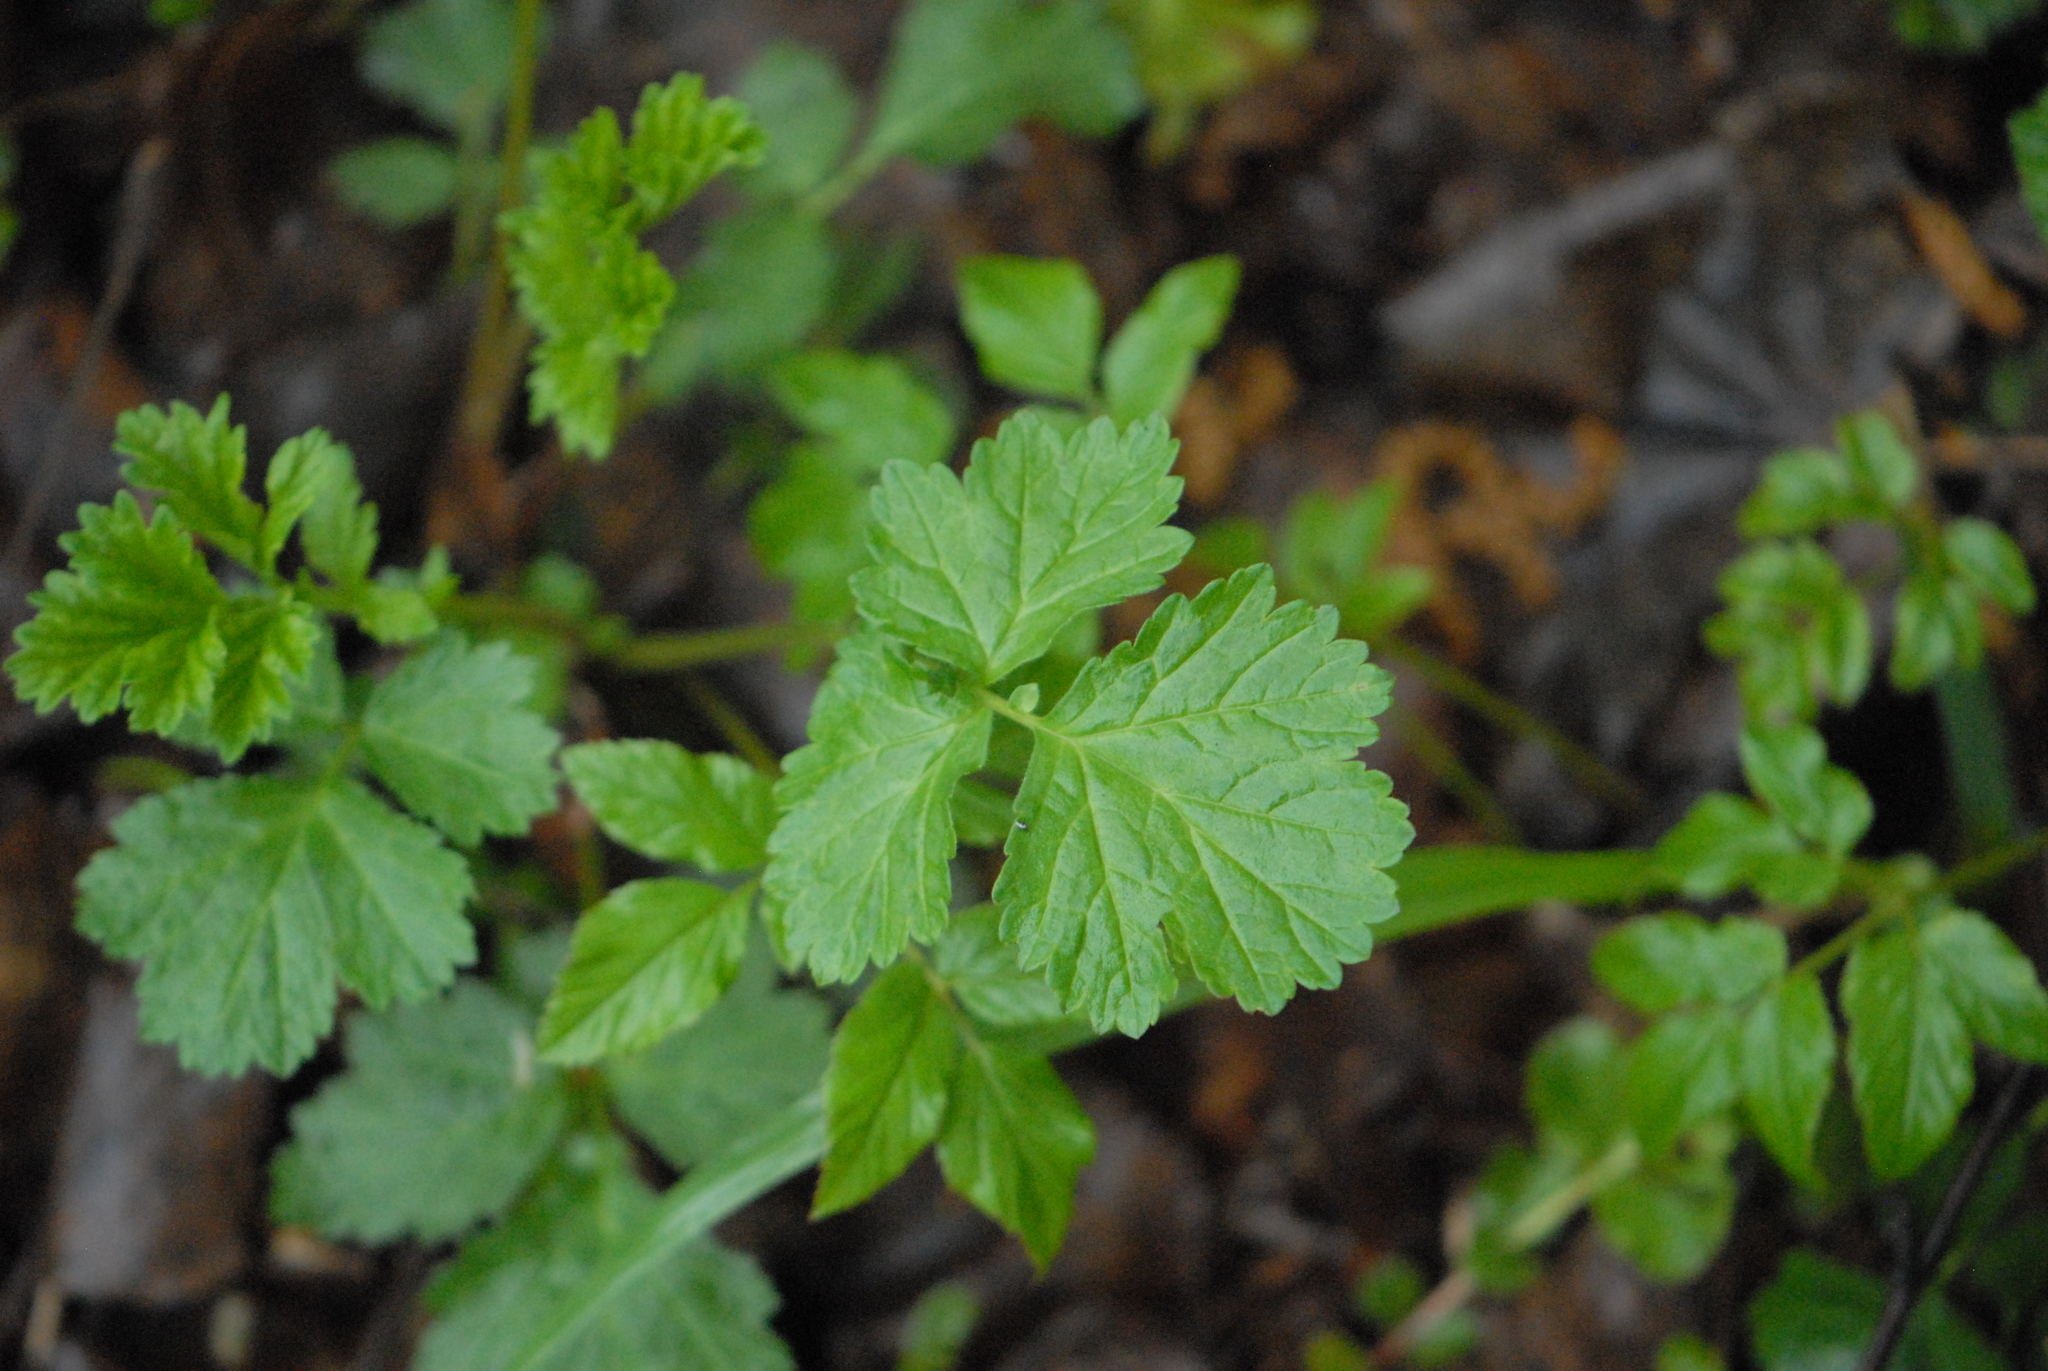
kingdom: Plantae
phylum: Tracheophyta
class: Magnoliopsida
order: Rosales
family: Rosaceae
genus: Geum
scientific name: Geum urbanum
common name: Wood avens
